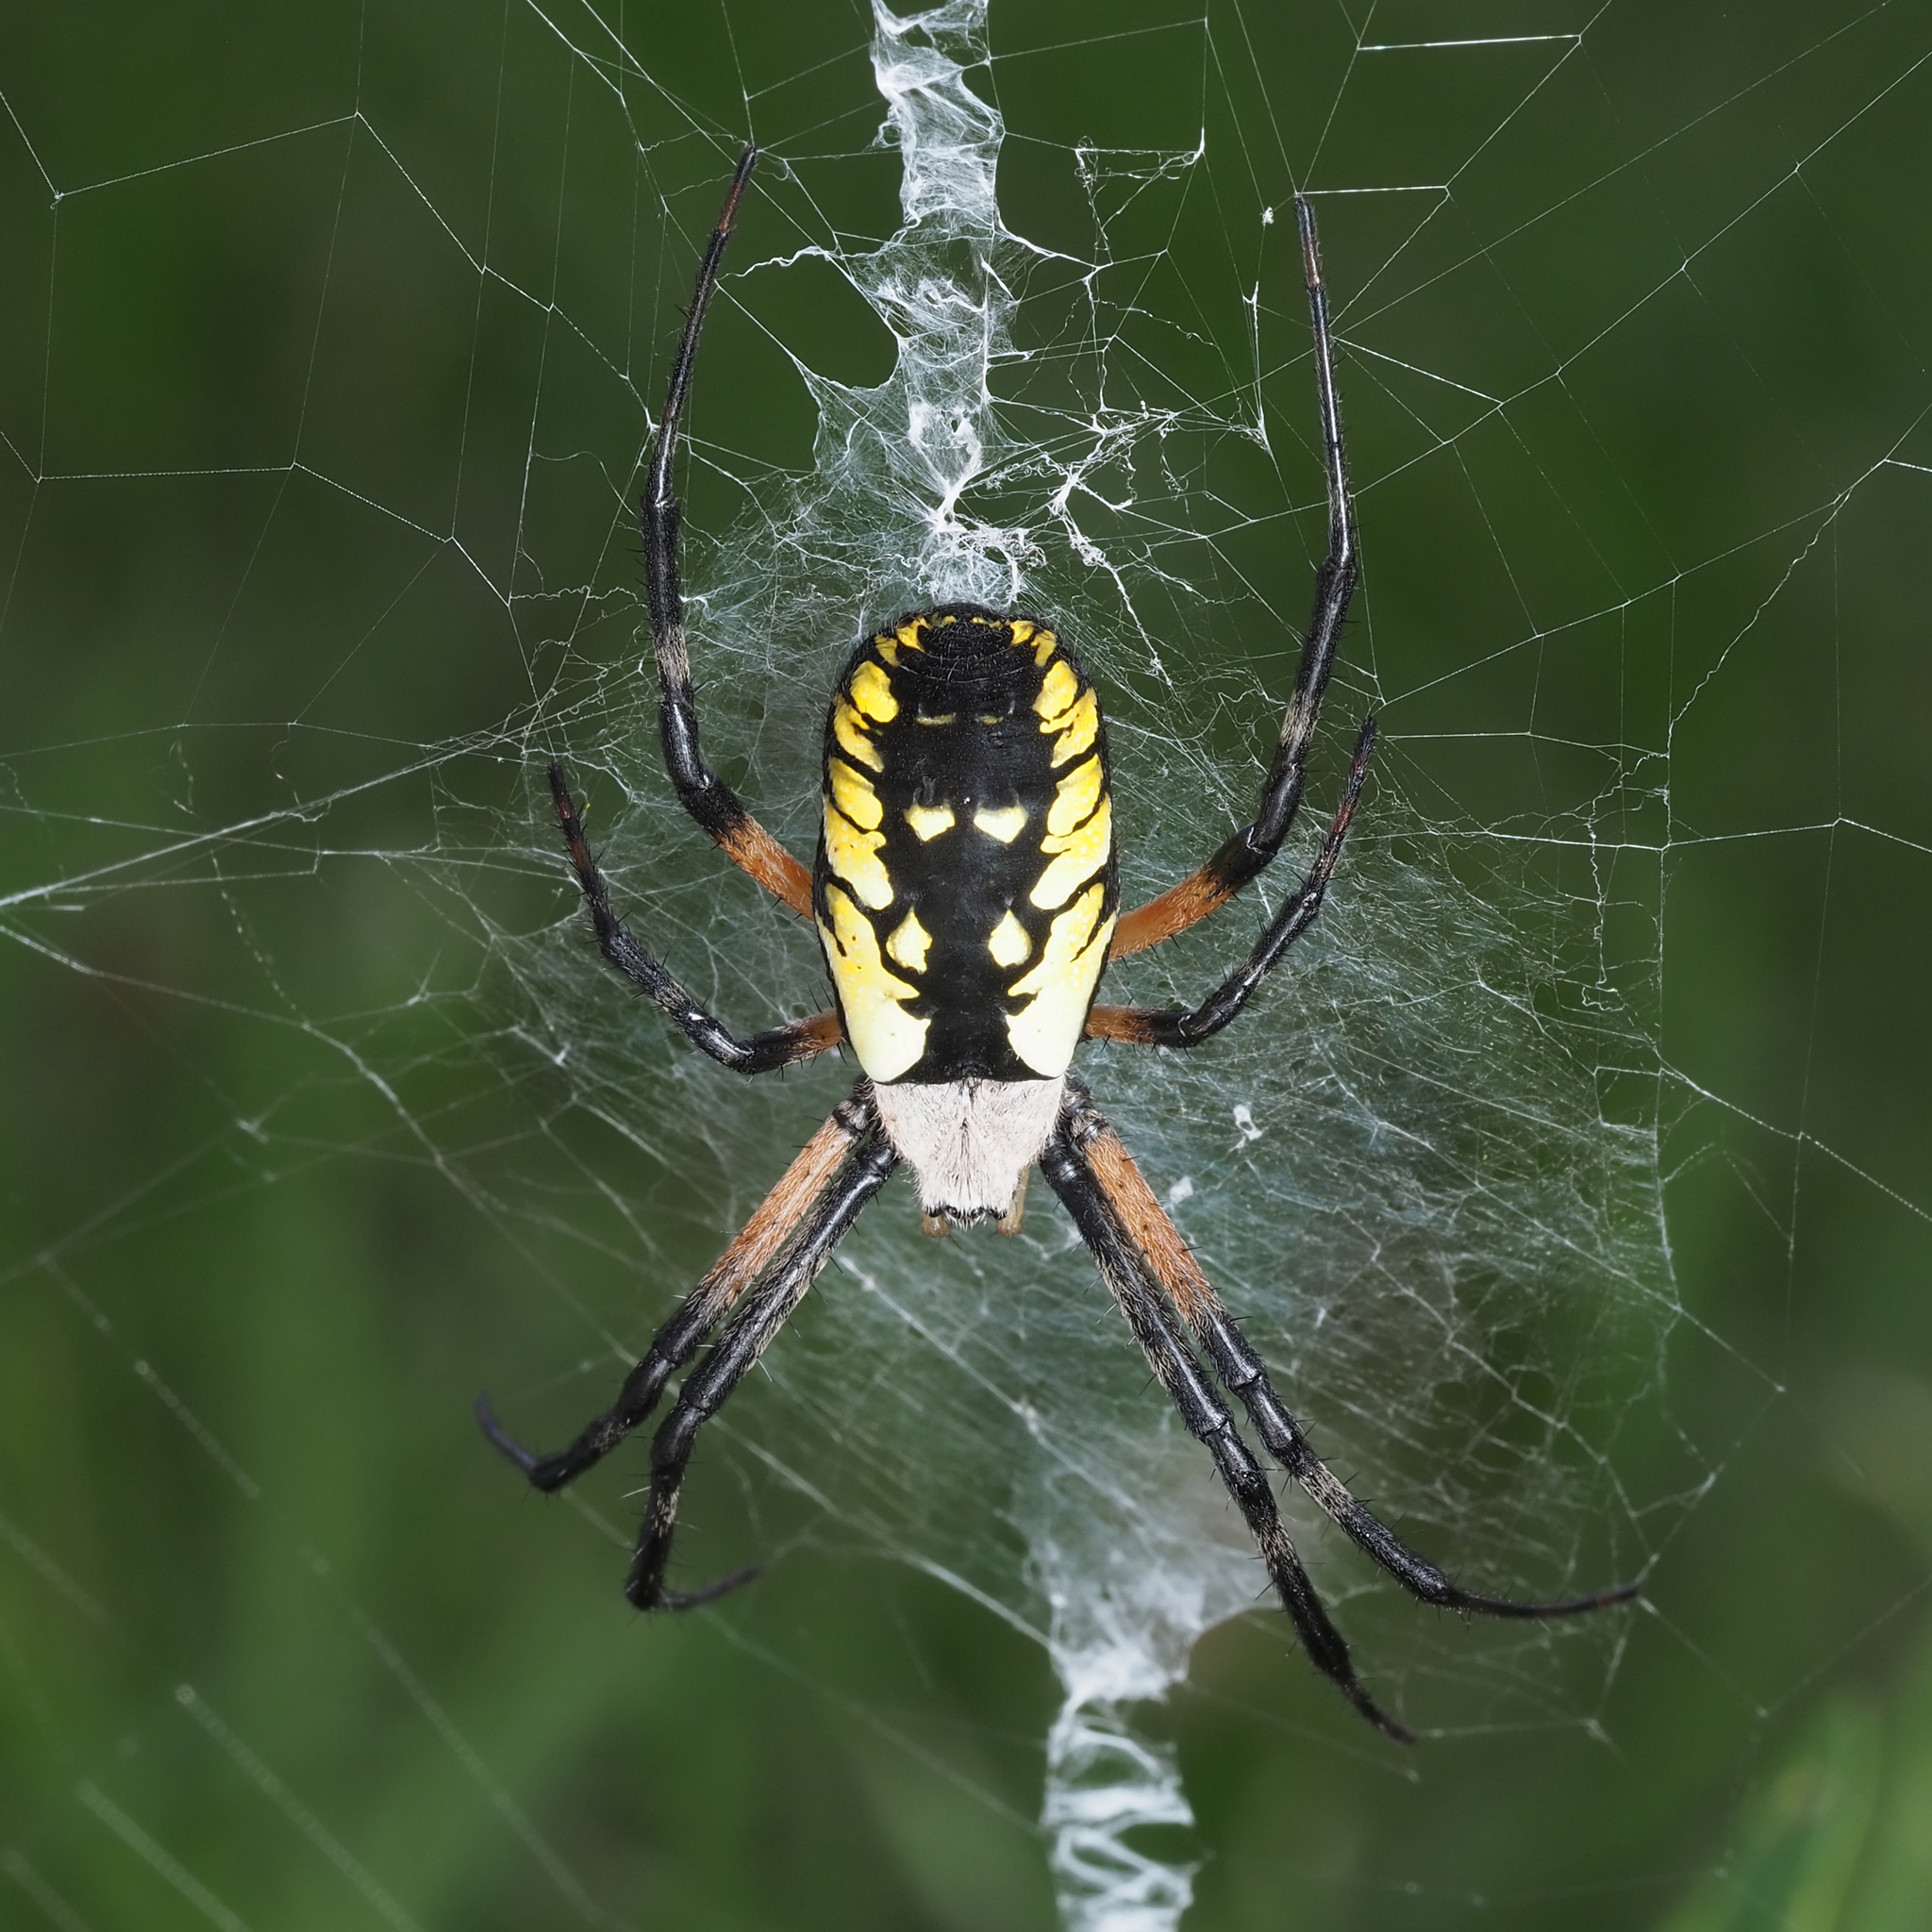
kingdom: Animalia
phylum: Arthropoda
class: Arachnida
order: Araneae
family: Araneidae
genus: Argiope
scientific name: Argiope aurantia
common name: Orb weavers
